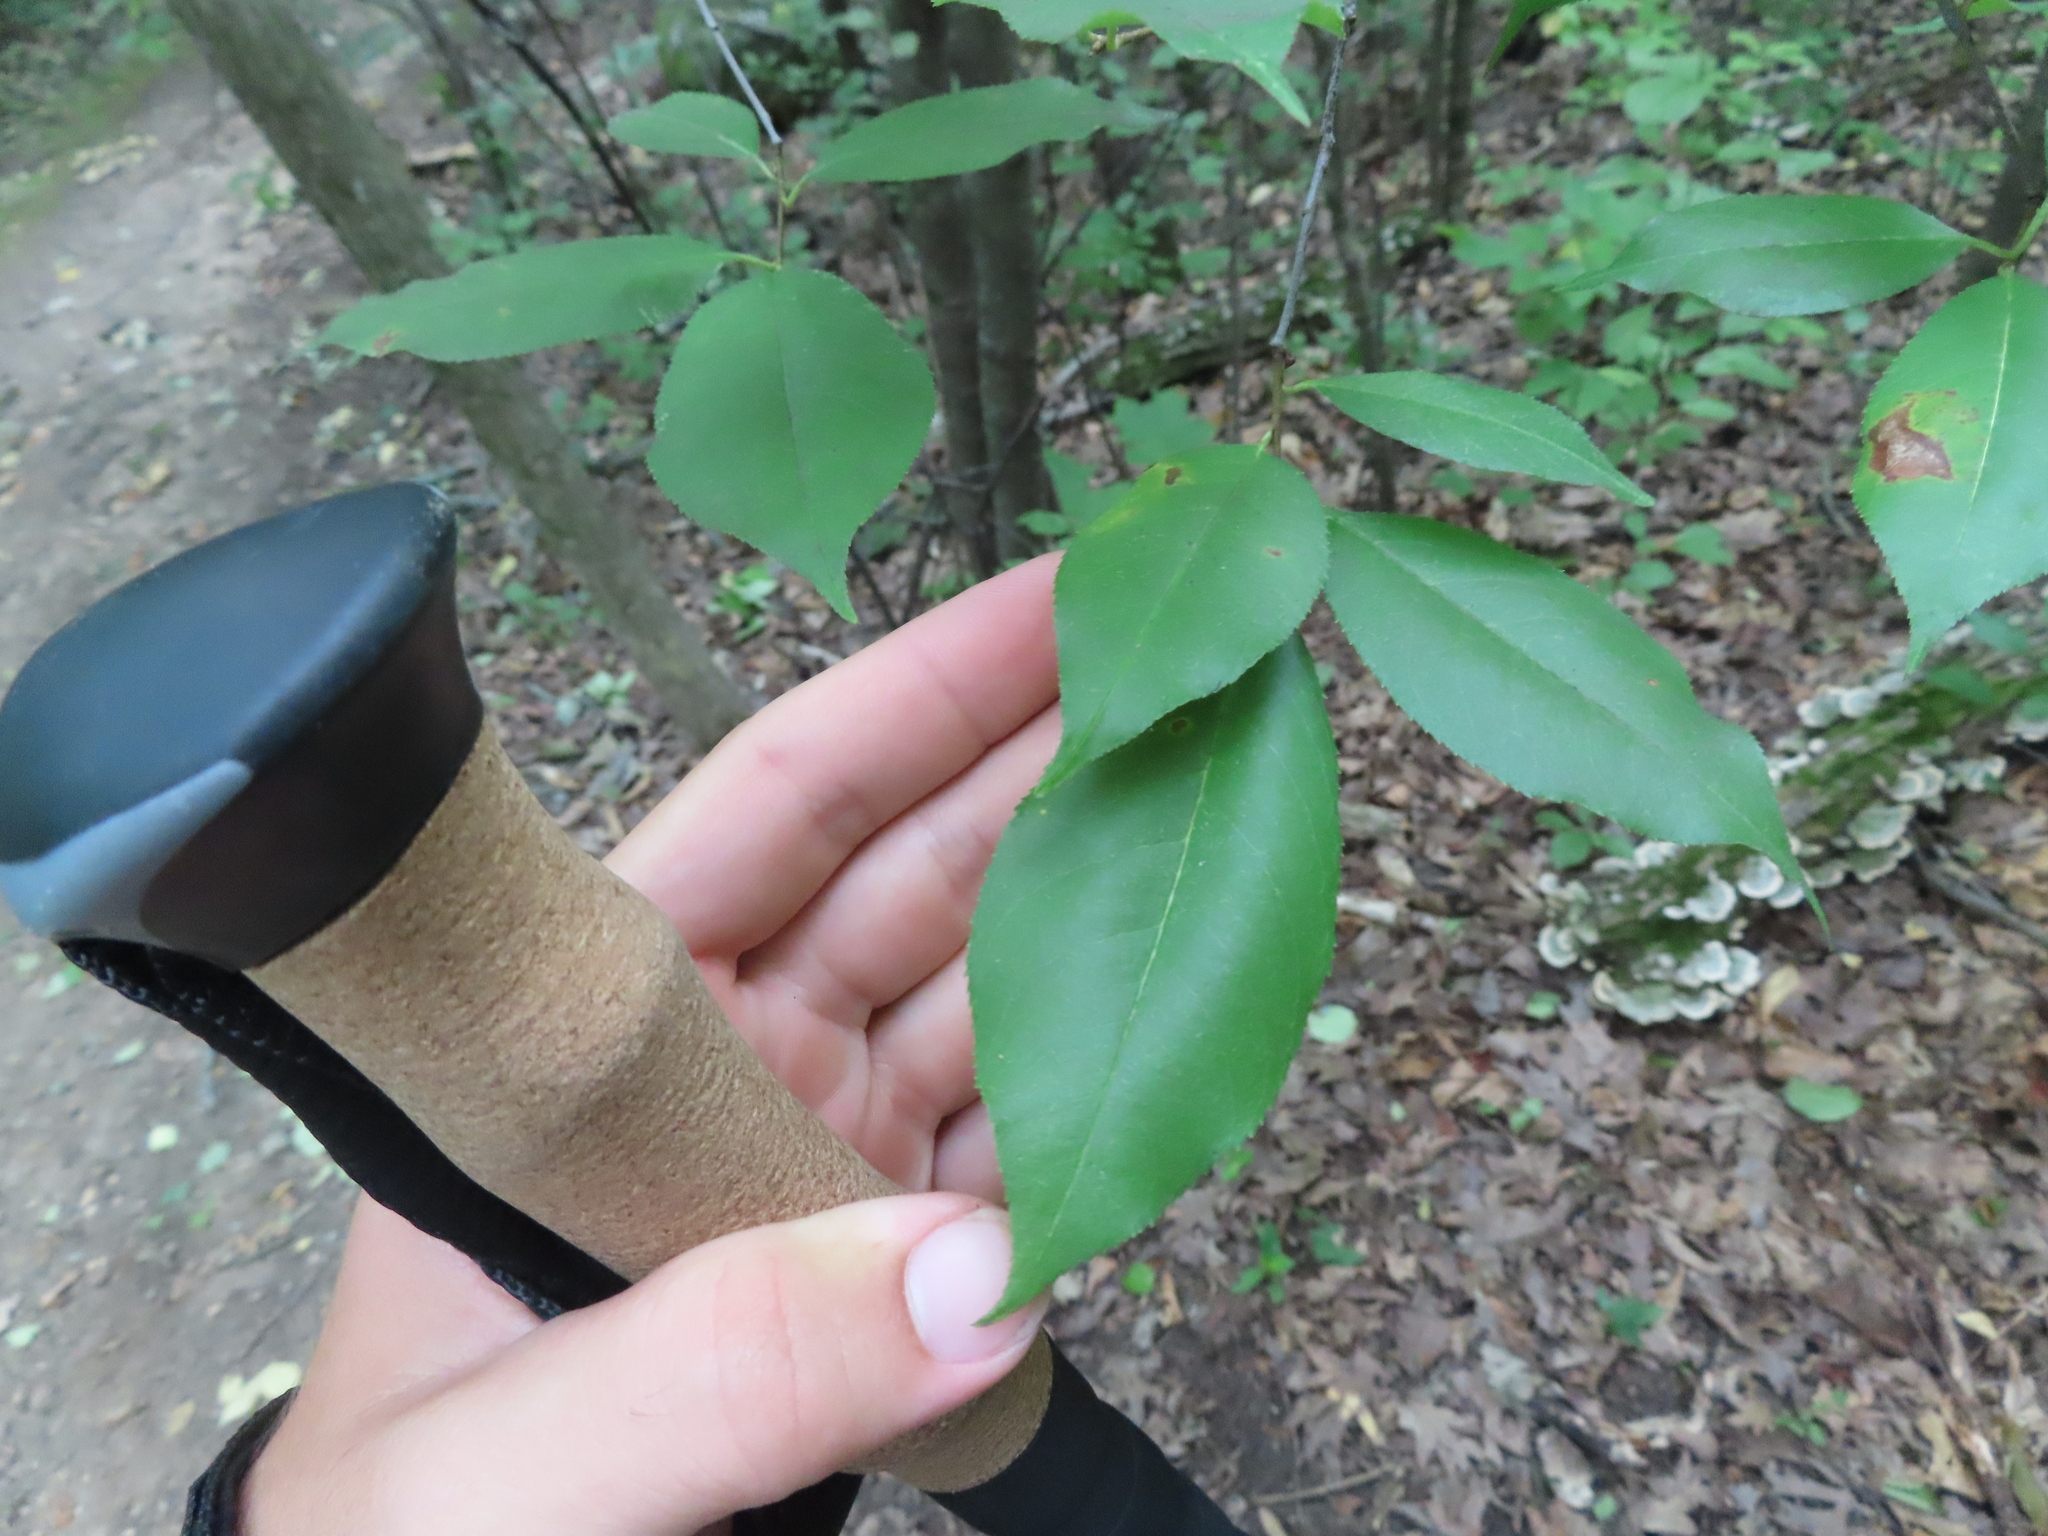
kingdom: Plantae
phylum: Tracheophyta
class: Magnoliopsida
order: Rosales
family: Rosaceae
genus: Prunus
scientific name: Prunus serotina
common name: Black cherry
